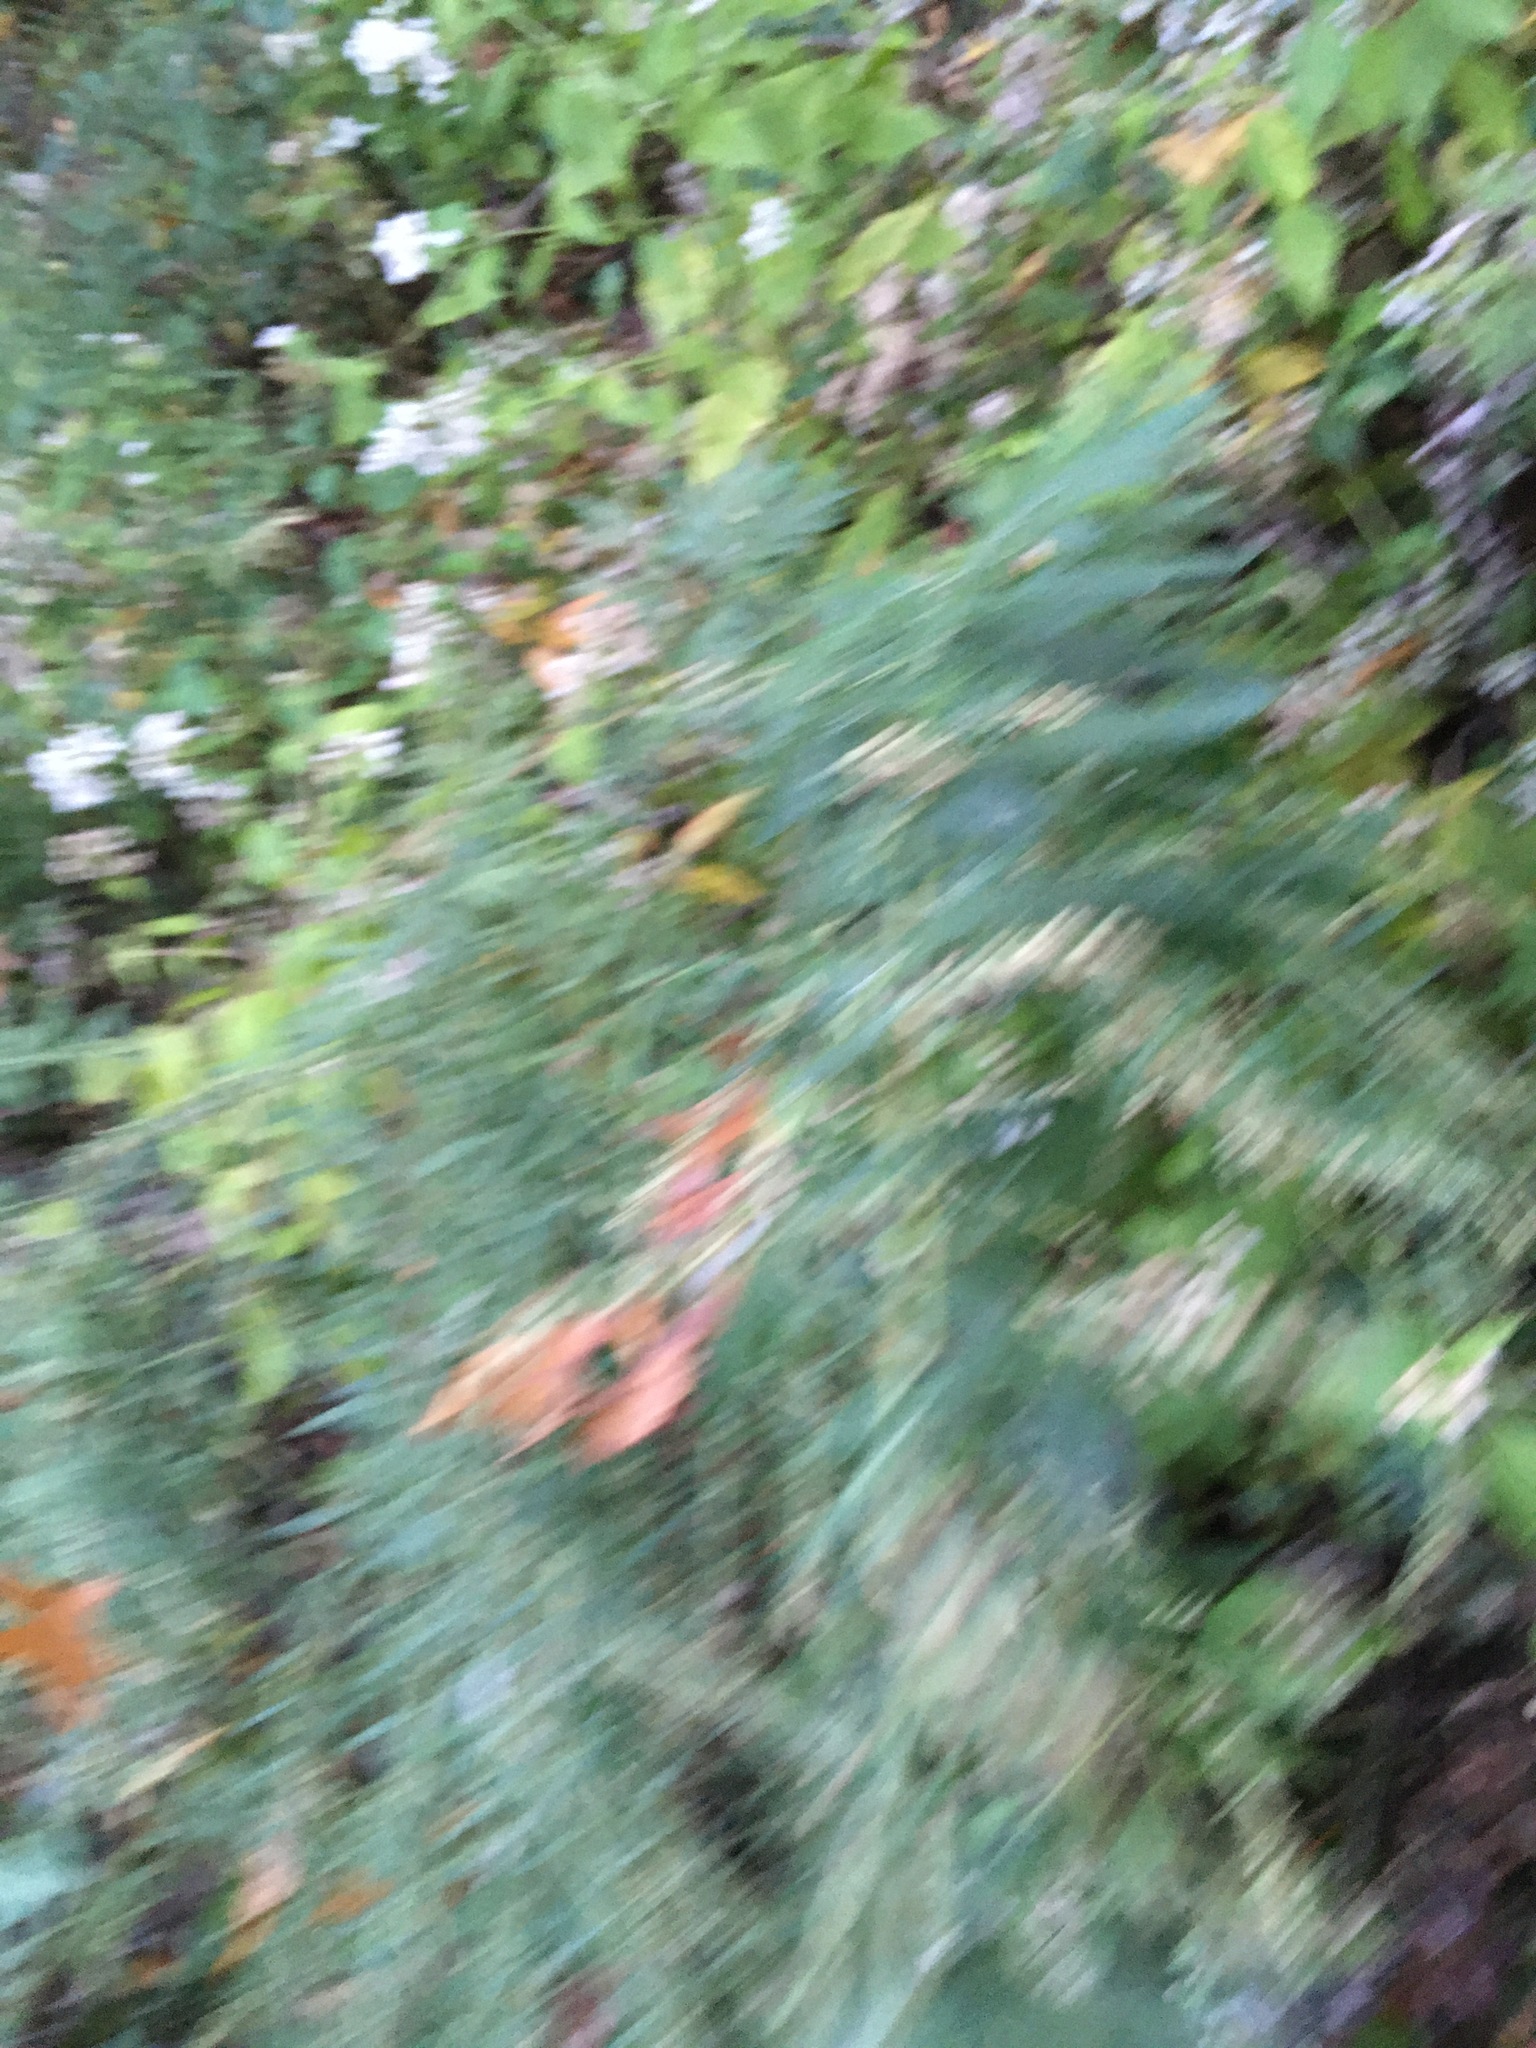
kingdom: Plantae
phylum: Tracheophyta
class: Magnoliopsida
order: Asterales
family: Asteraceae
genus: Artemisia
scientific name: Artemisia vulgaris
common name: Mugwort
